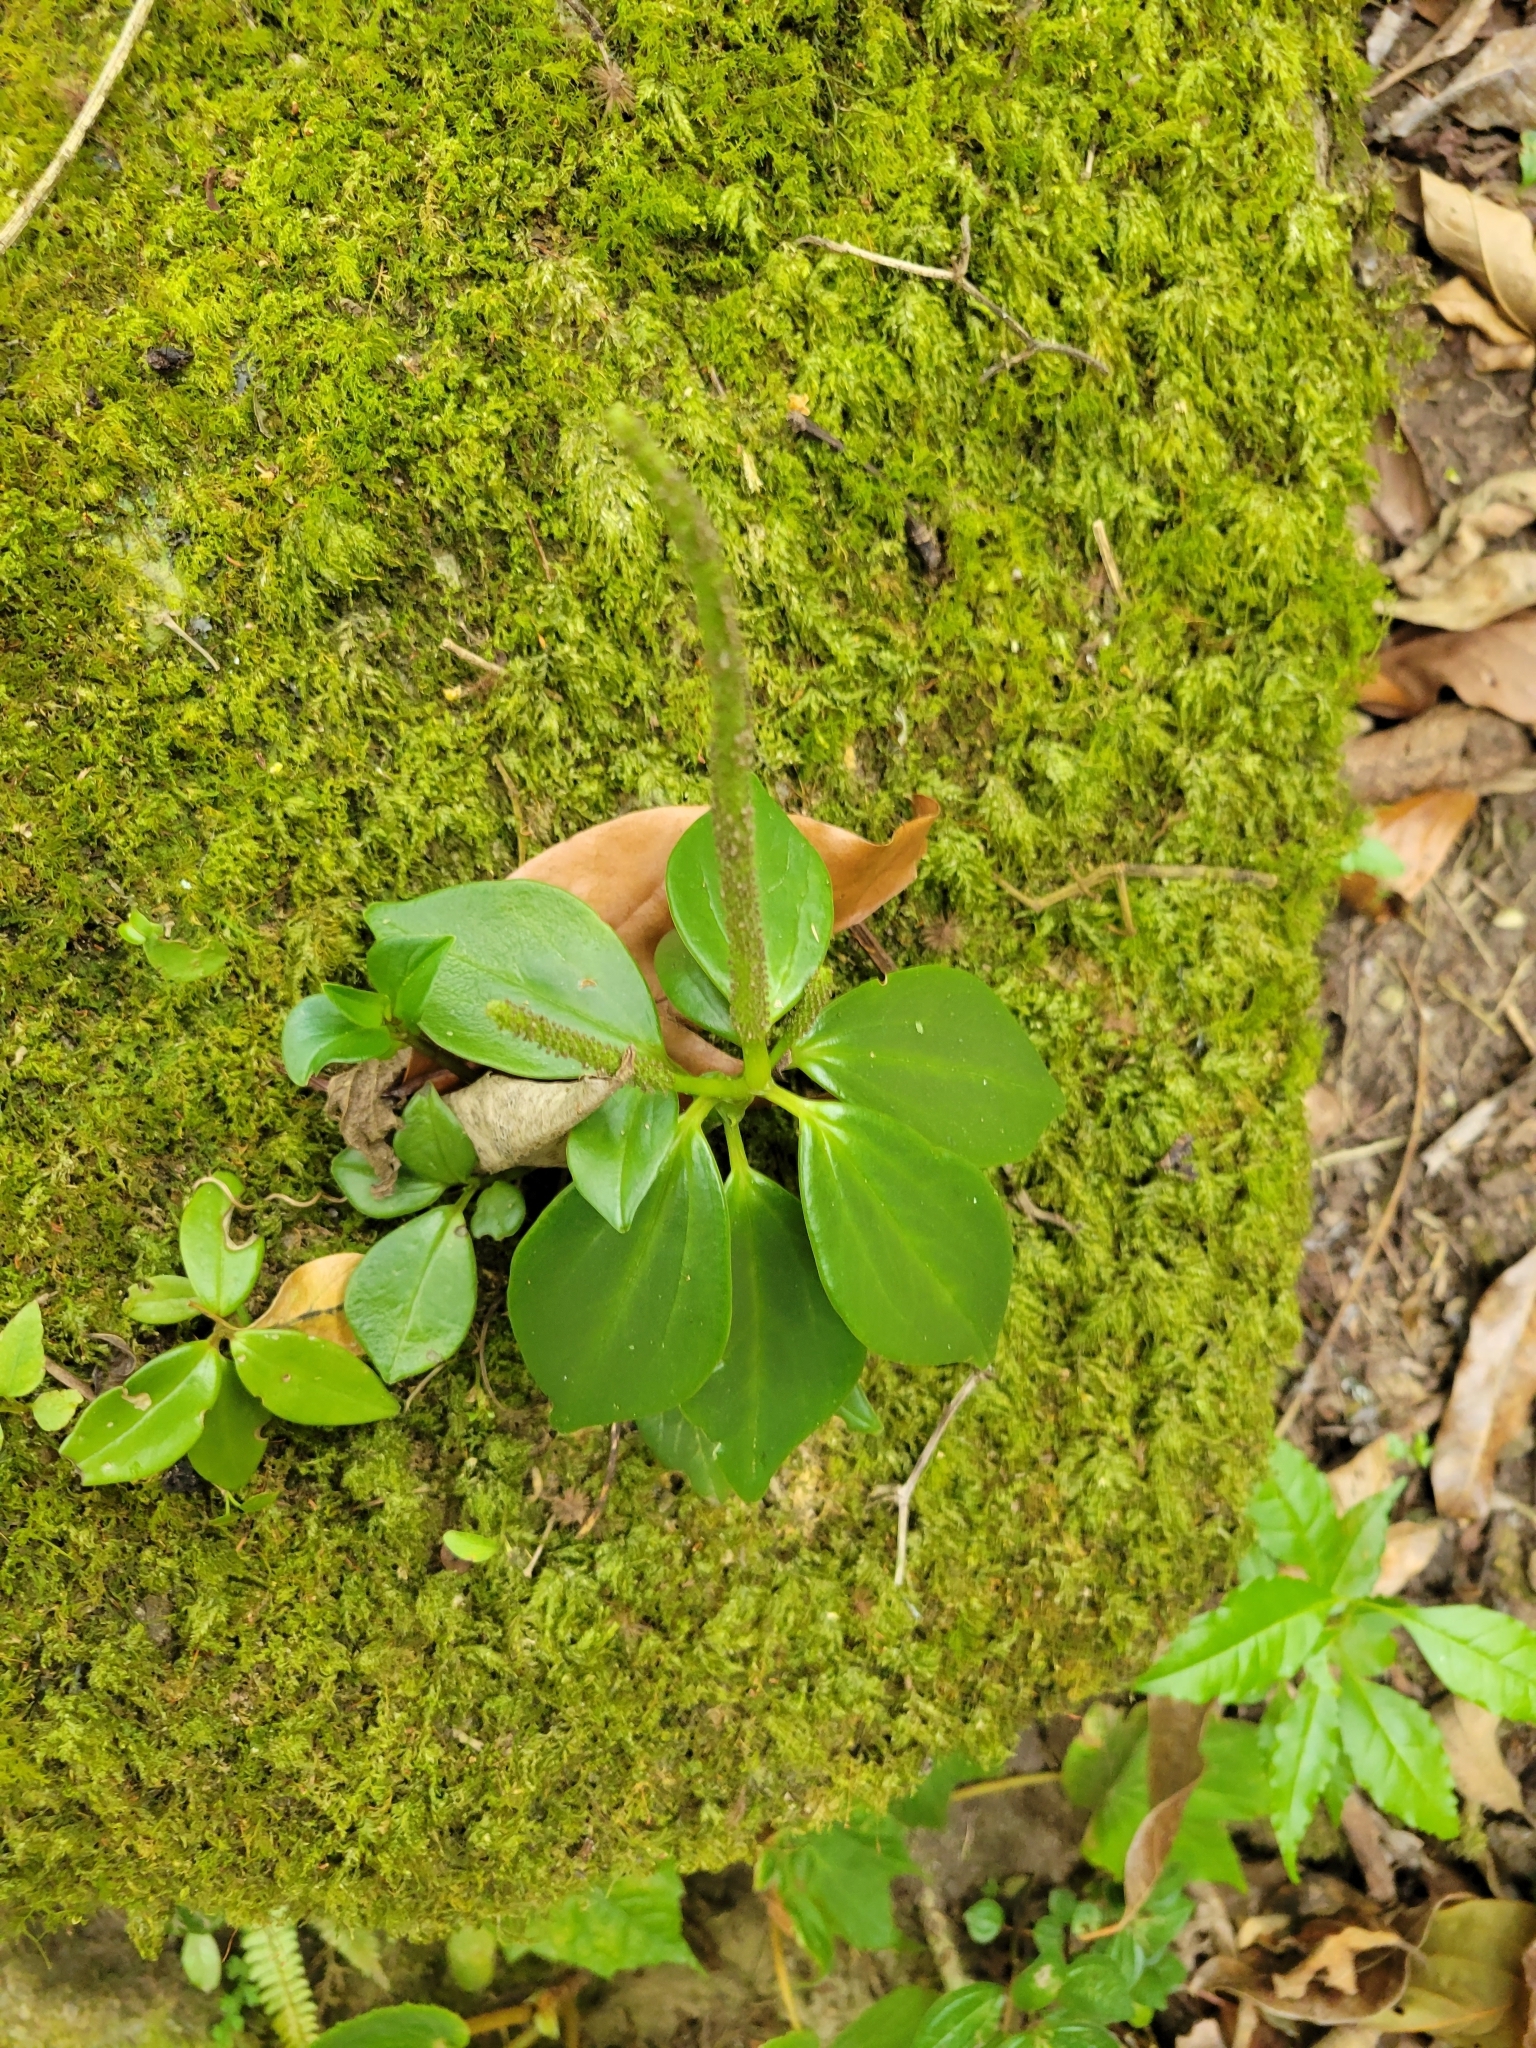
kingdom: Plantae
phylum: Tracheophyta
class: Magnoliopsida
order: Piperales
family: Piperaceae
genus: Peperomia
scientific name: Peperomia san-joseana
